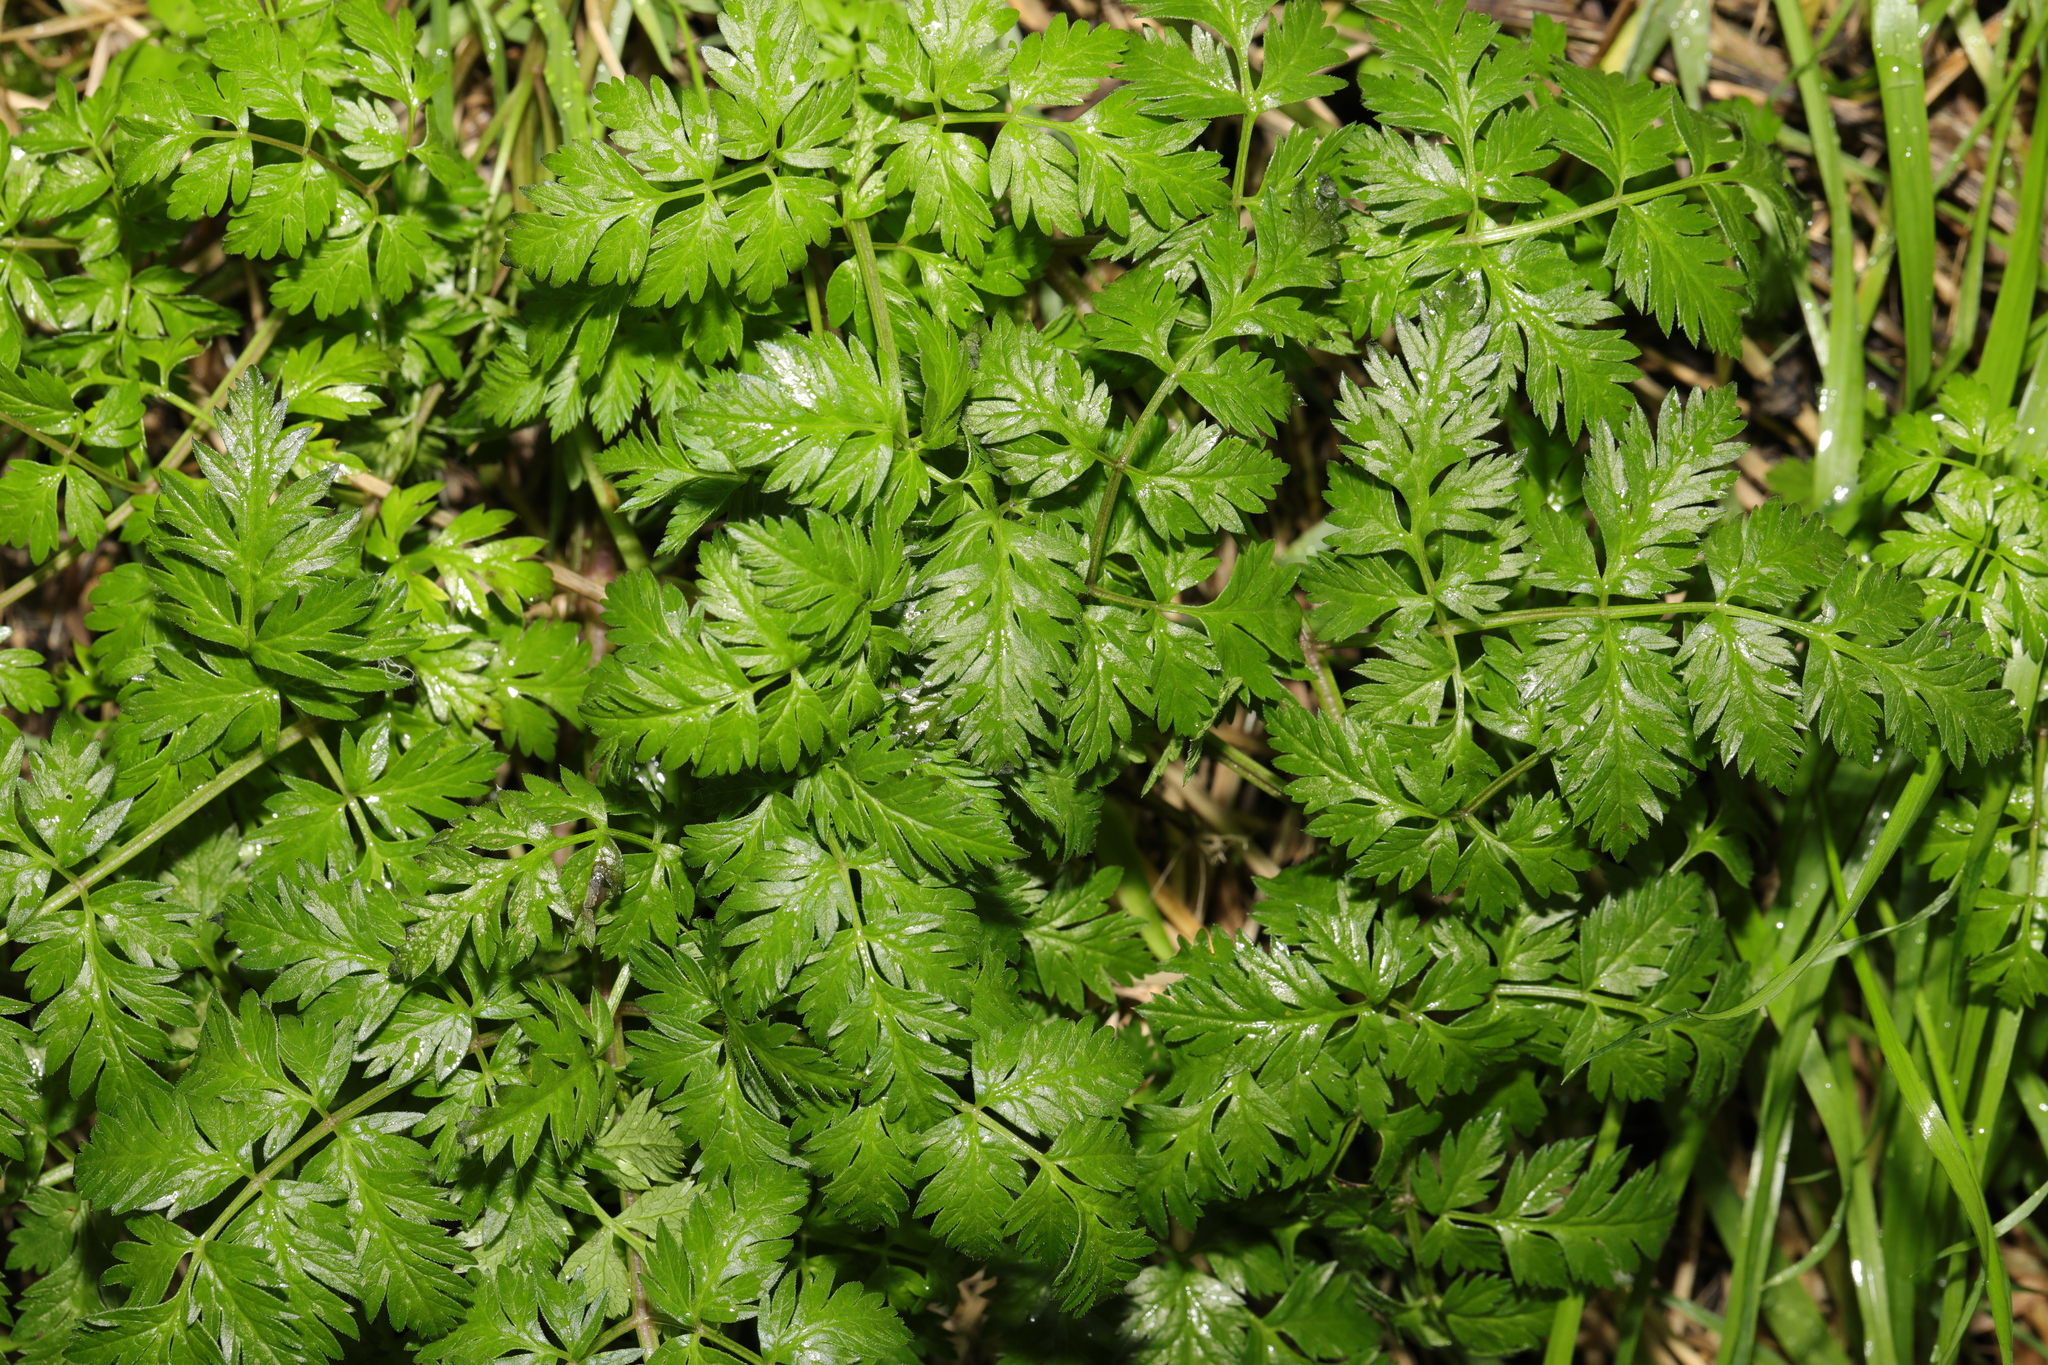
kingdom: Plantae
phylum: Tracheophyta
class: Magnoliopsida
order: Apiales
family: Apiaceae
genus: Anthriscus
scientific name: Anthriscus sylvestris
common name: Cow parsley
